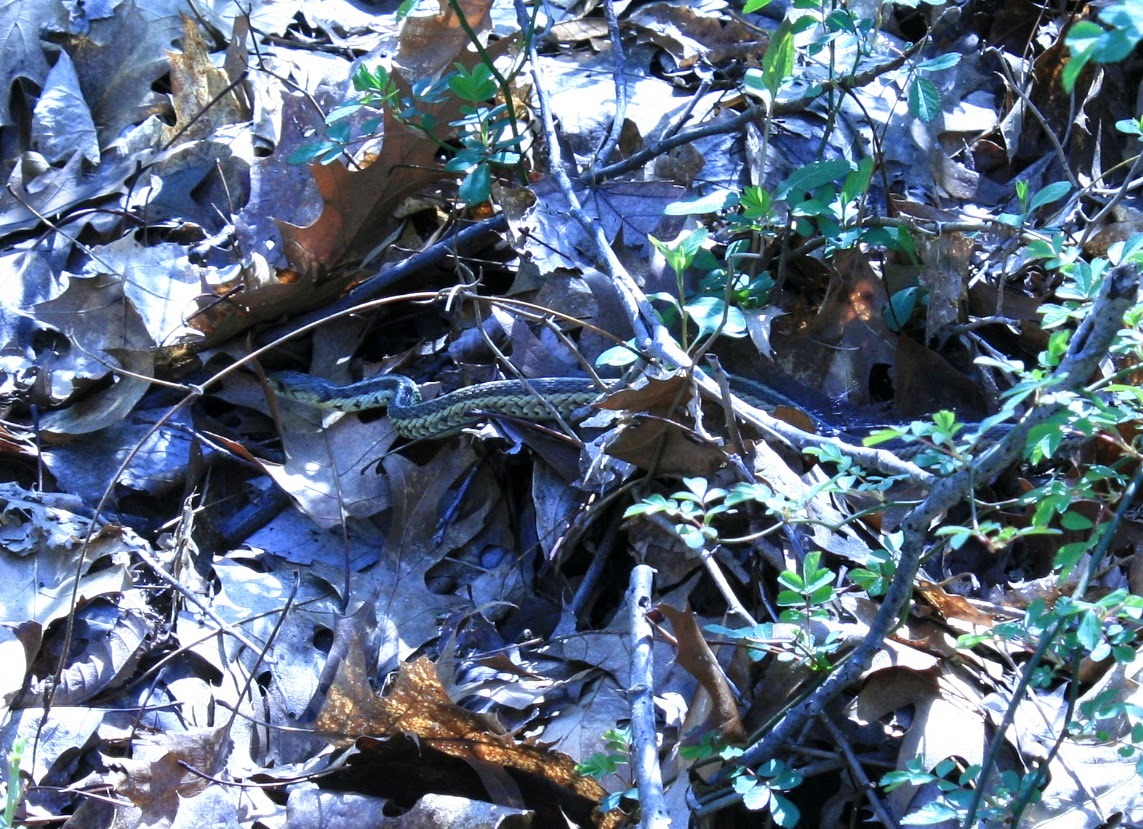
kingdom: Animalia
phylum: Chordata
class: Squamata
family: Colubridae
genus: Thamnophis
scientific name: Thamnophis sirtalis
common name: Common garter snake
